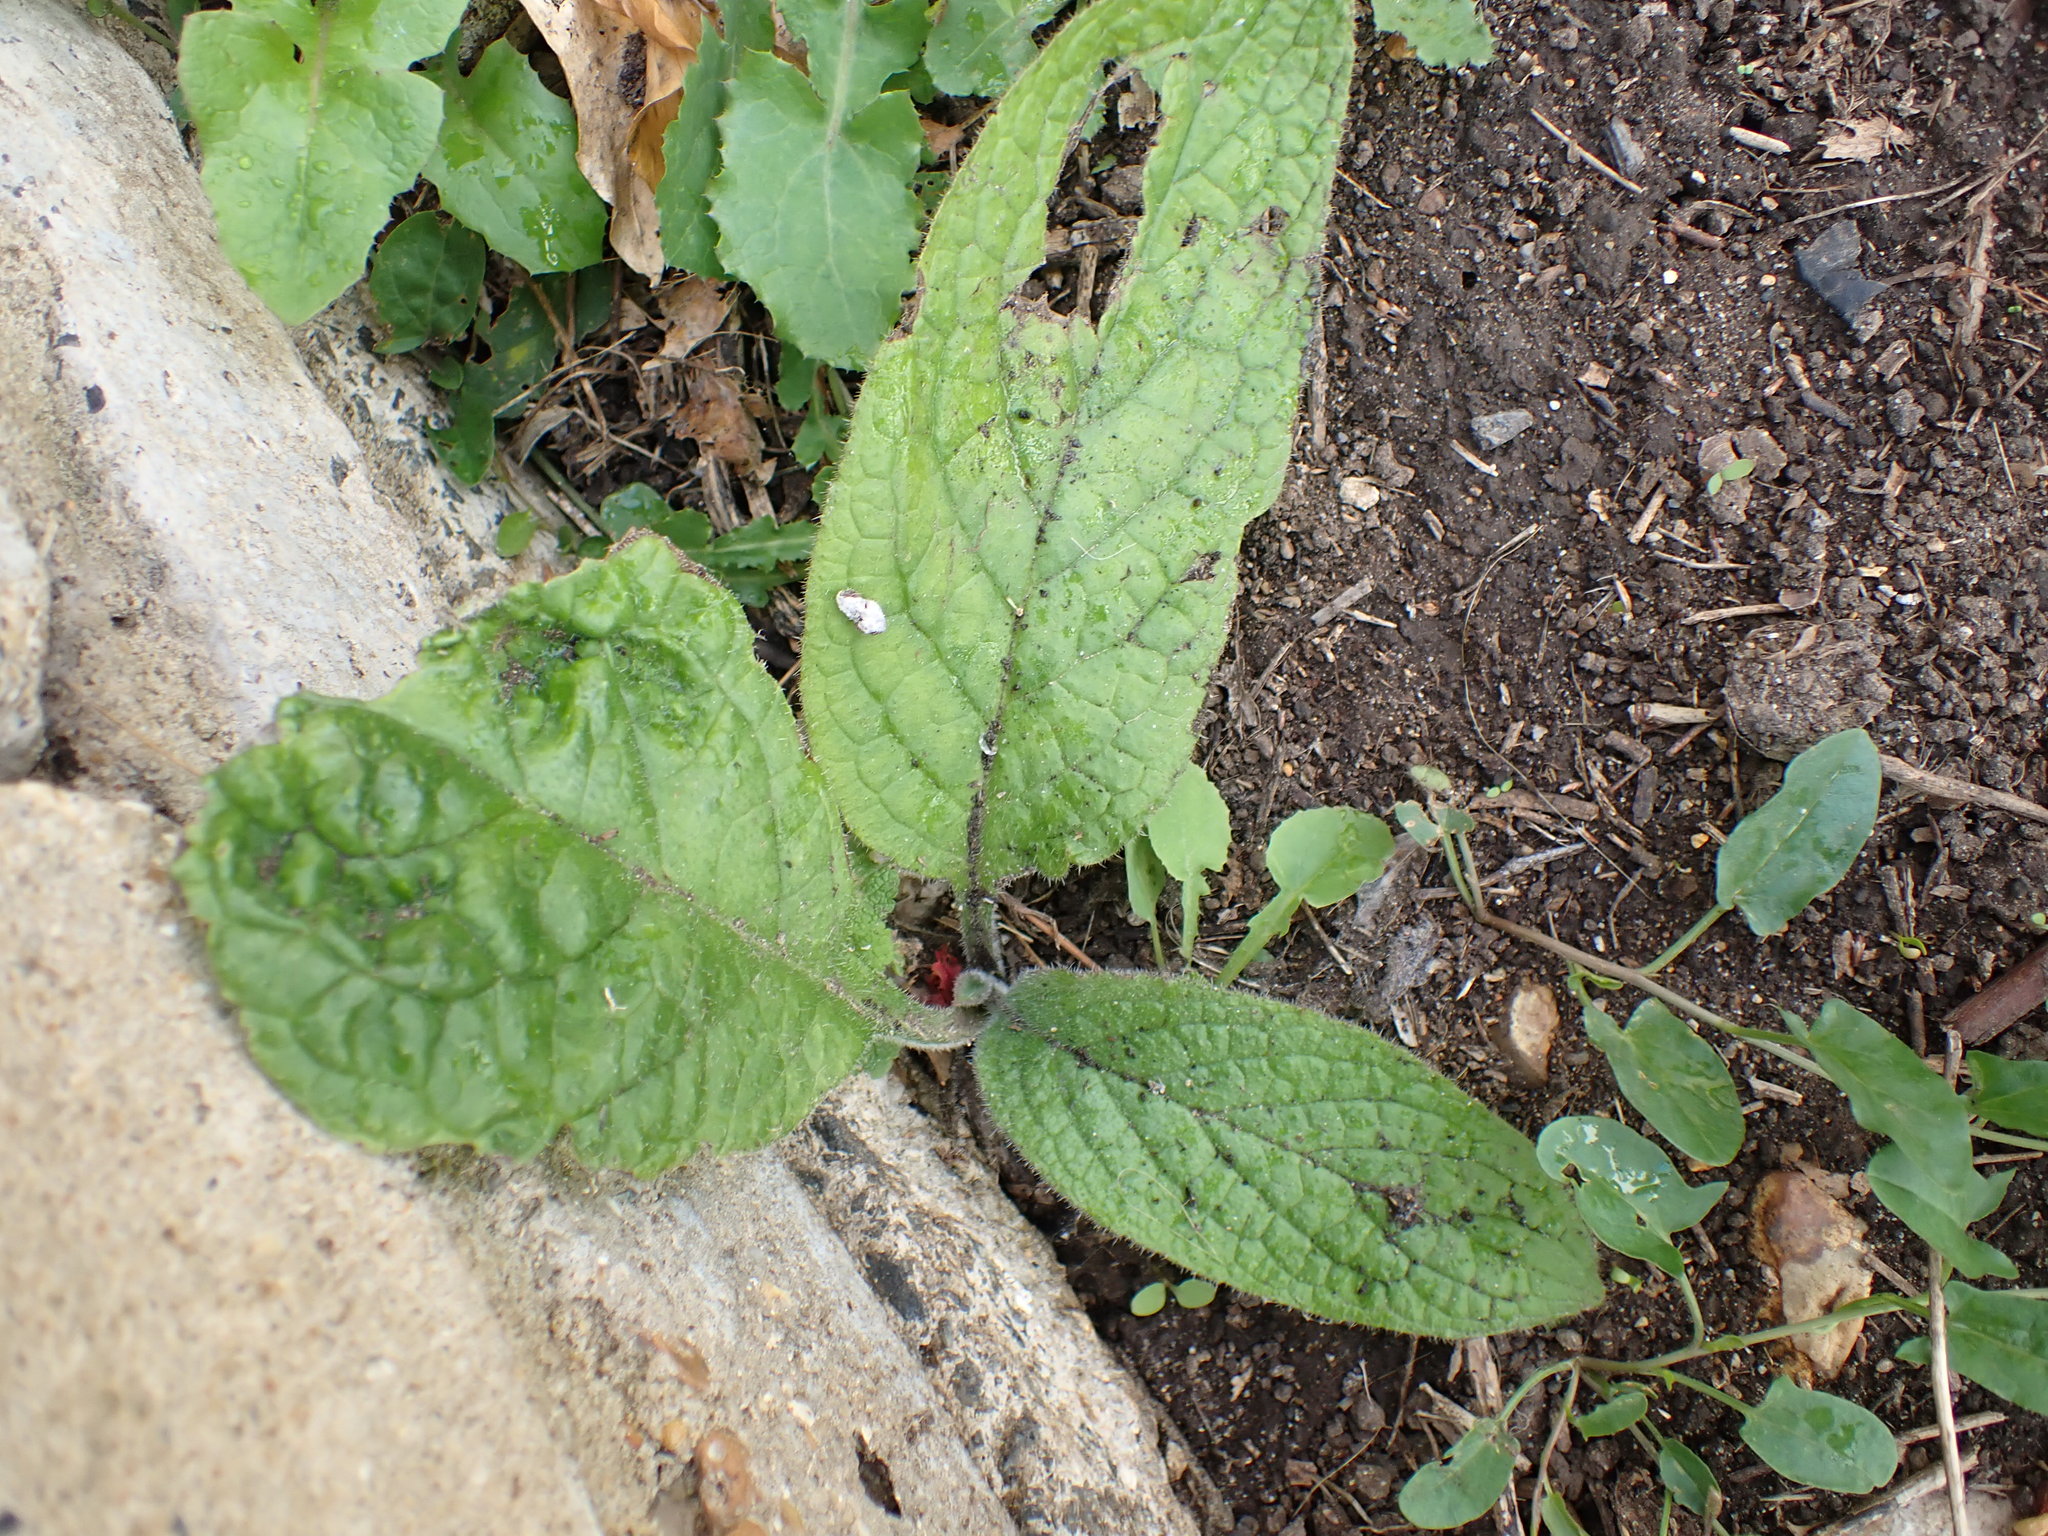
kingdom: Plantae
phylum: Tracheophyta
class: Magnoliopsida
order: Lamiales
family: Plantaginaceae
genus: Digitalis
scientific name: Digitalis purpurea
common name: Foxglove
